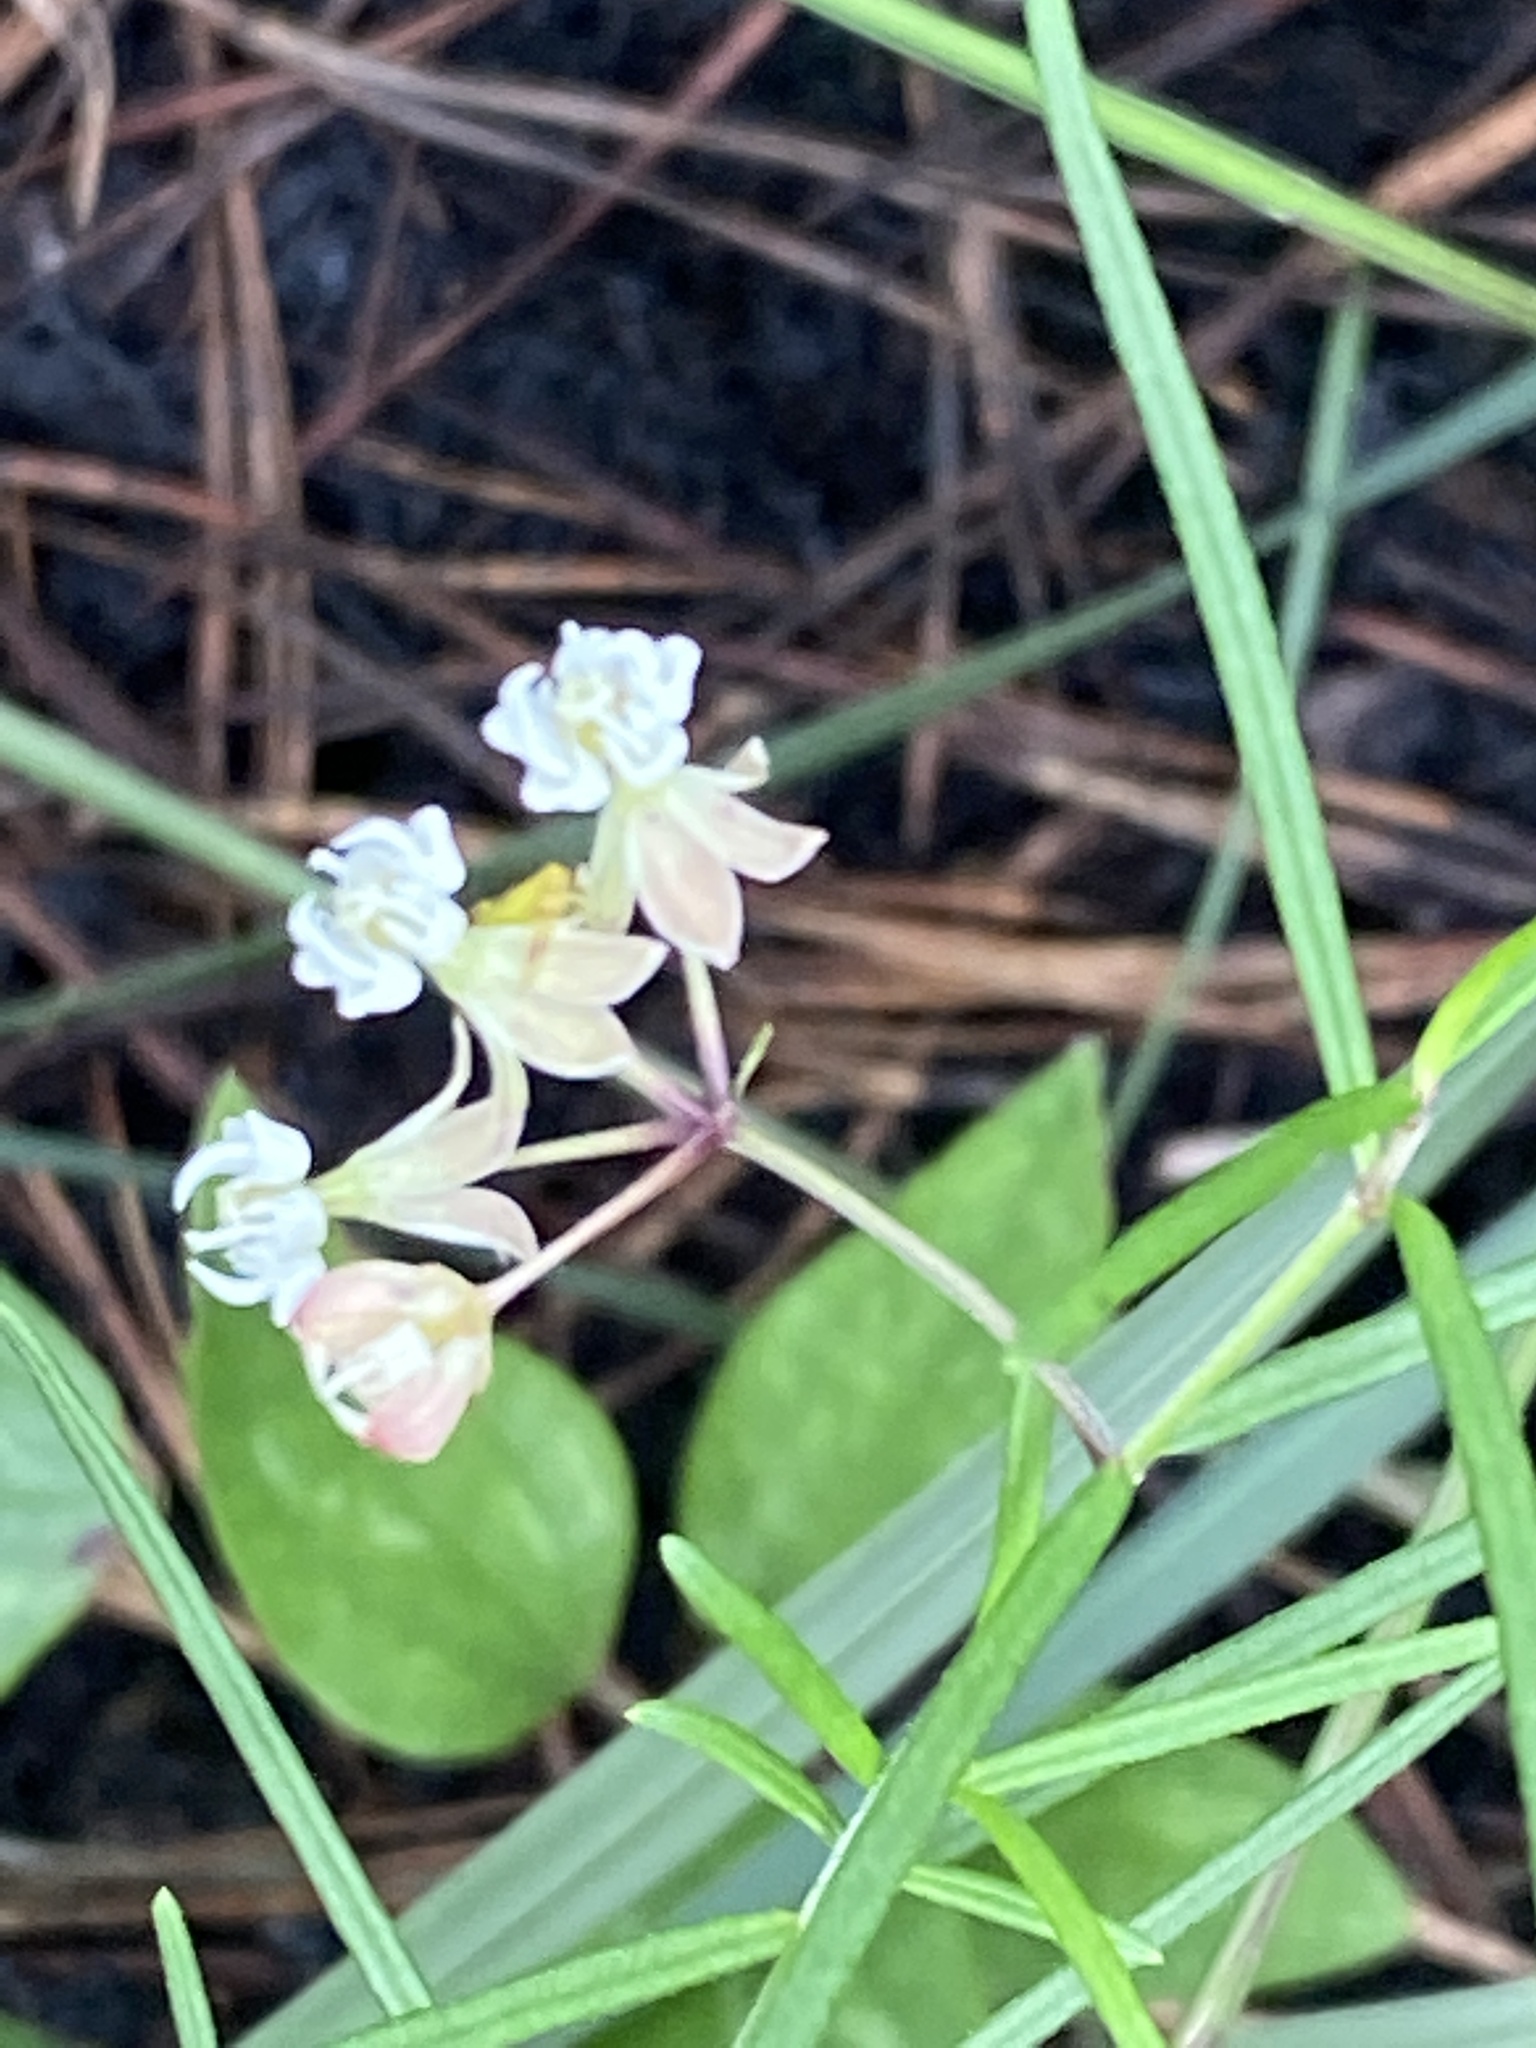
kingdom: Plantae
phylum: Tracheophyta
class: Magnoliopsida
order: Gentianales
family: Apocynaceae
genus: Asclepias
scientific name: Asclepias verticillata
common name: Eastern whorled milkweed
